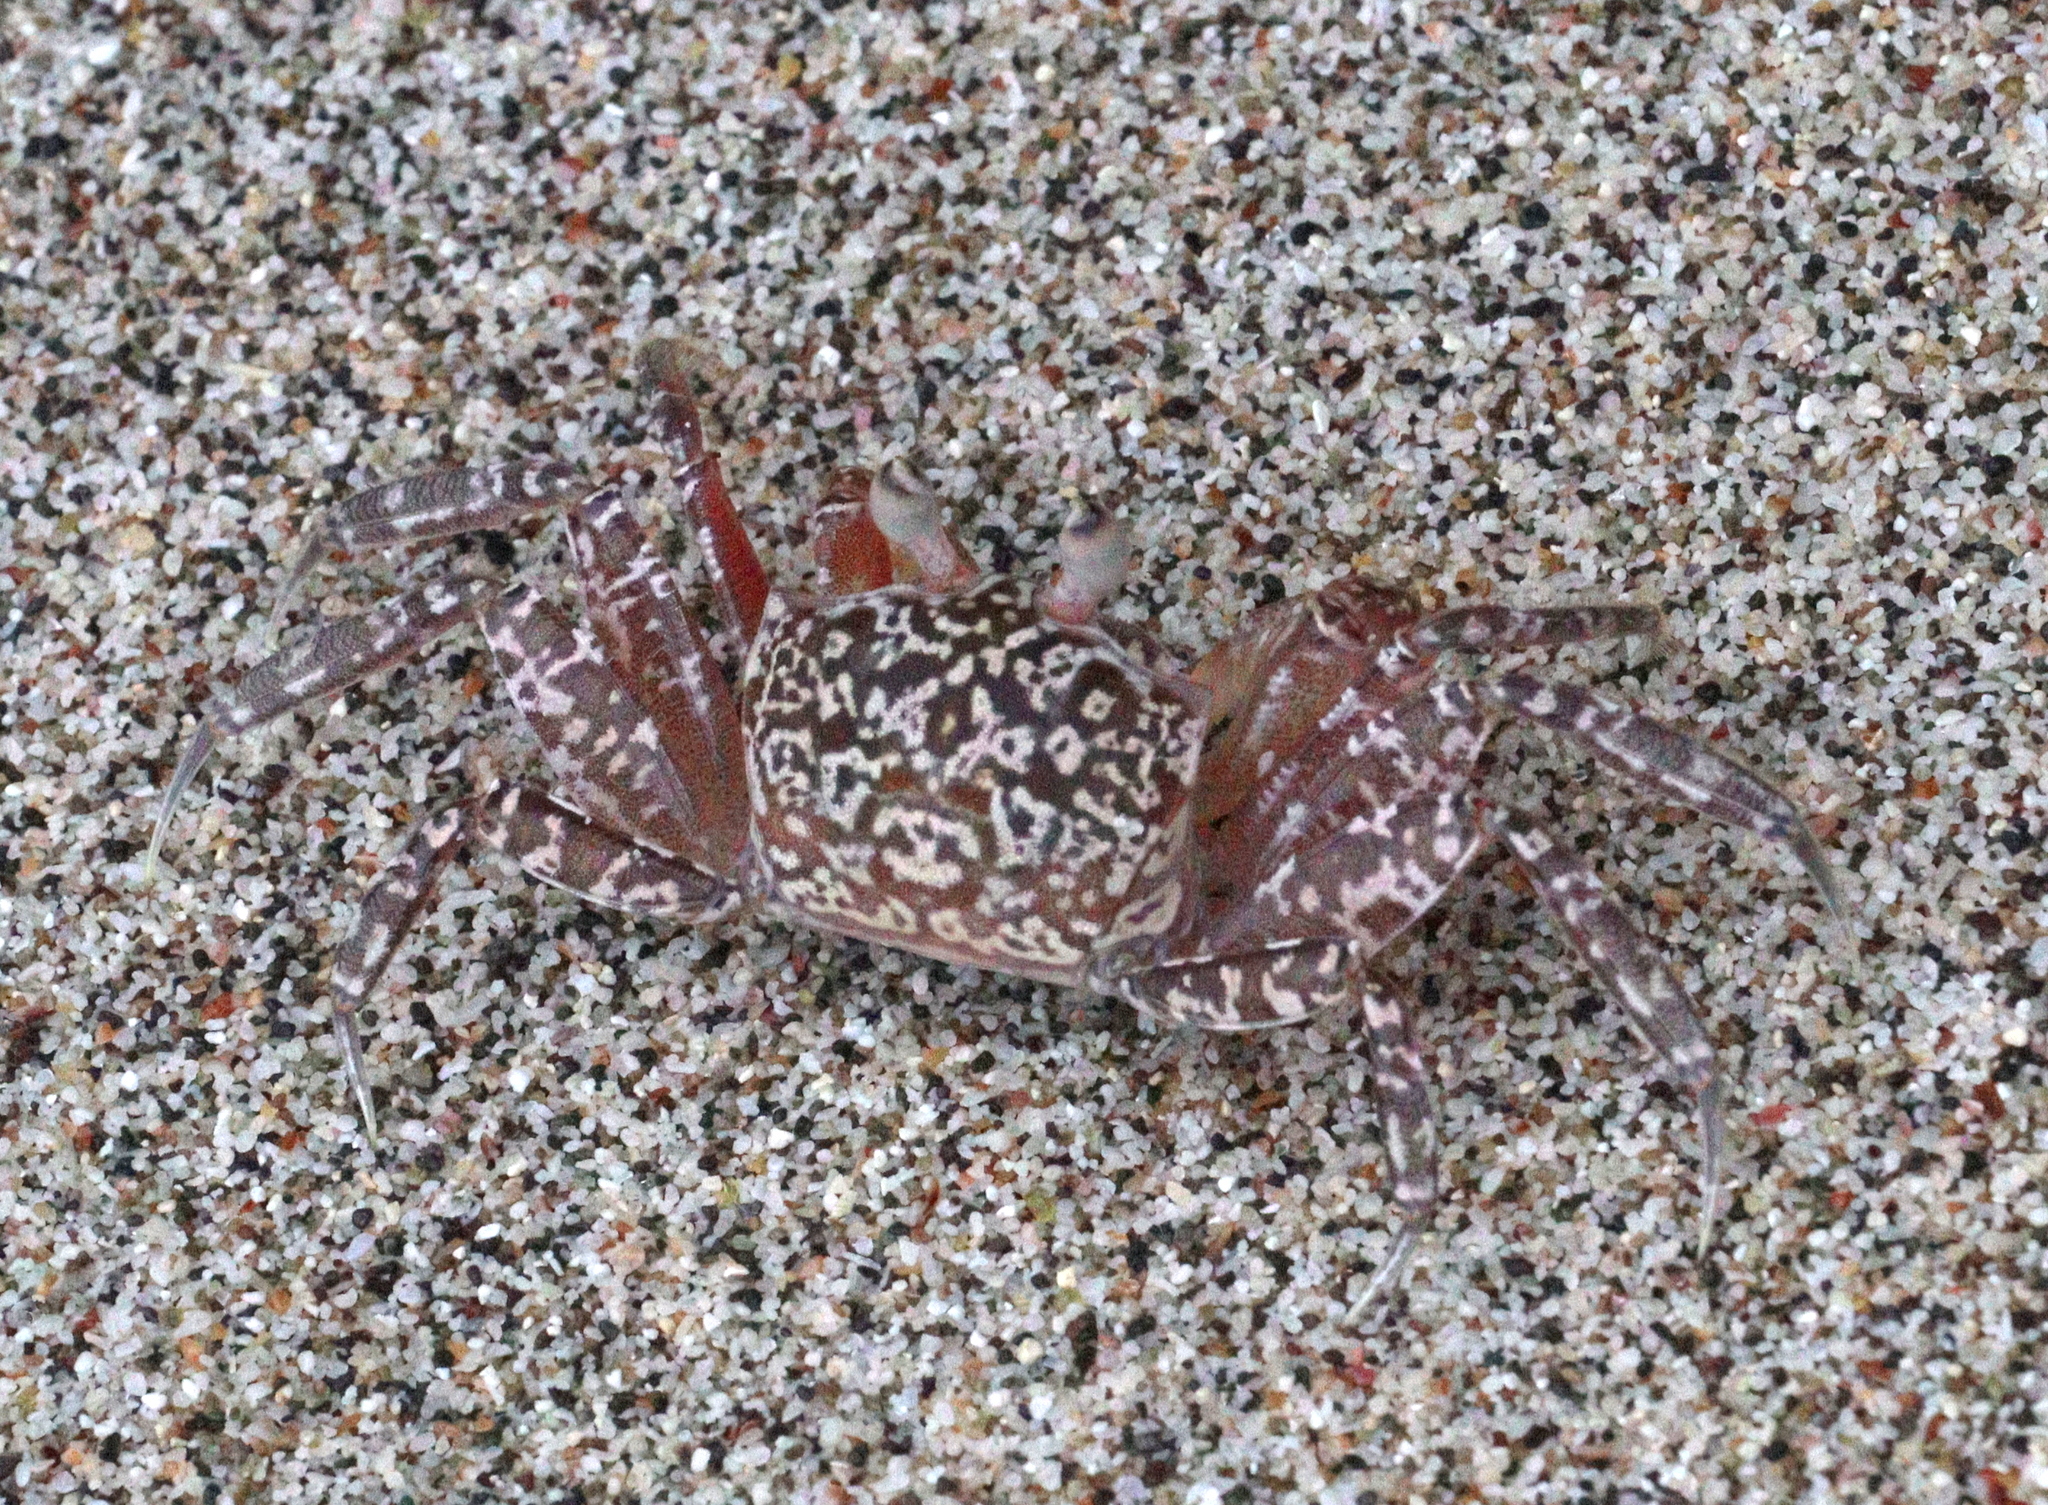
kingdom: Animalia
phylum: Arthropoda
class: Malacostraca
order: Decapoda
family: Ocypodidae
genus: Ocypode
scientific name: Ocypode gaudichaudii
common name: Pacific ghost crab
